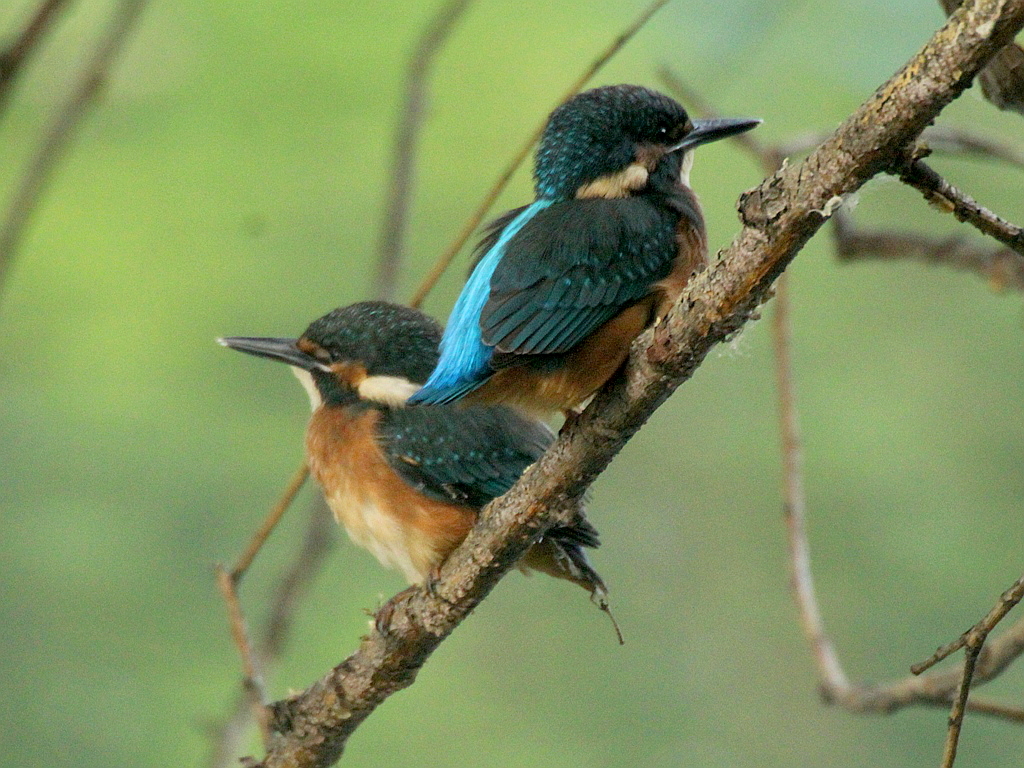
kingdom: Animalia
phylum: Chordata
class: Aves
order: Coraciiformes
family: Alcedinidae
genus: Alcedo
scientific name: Alcedo atthis
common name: Common kingfisher
